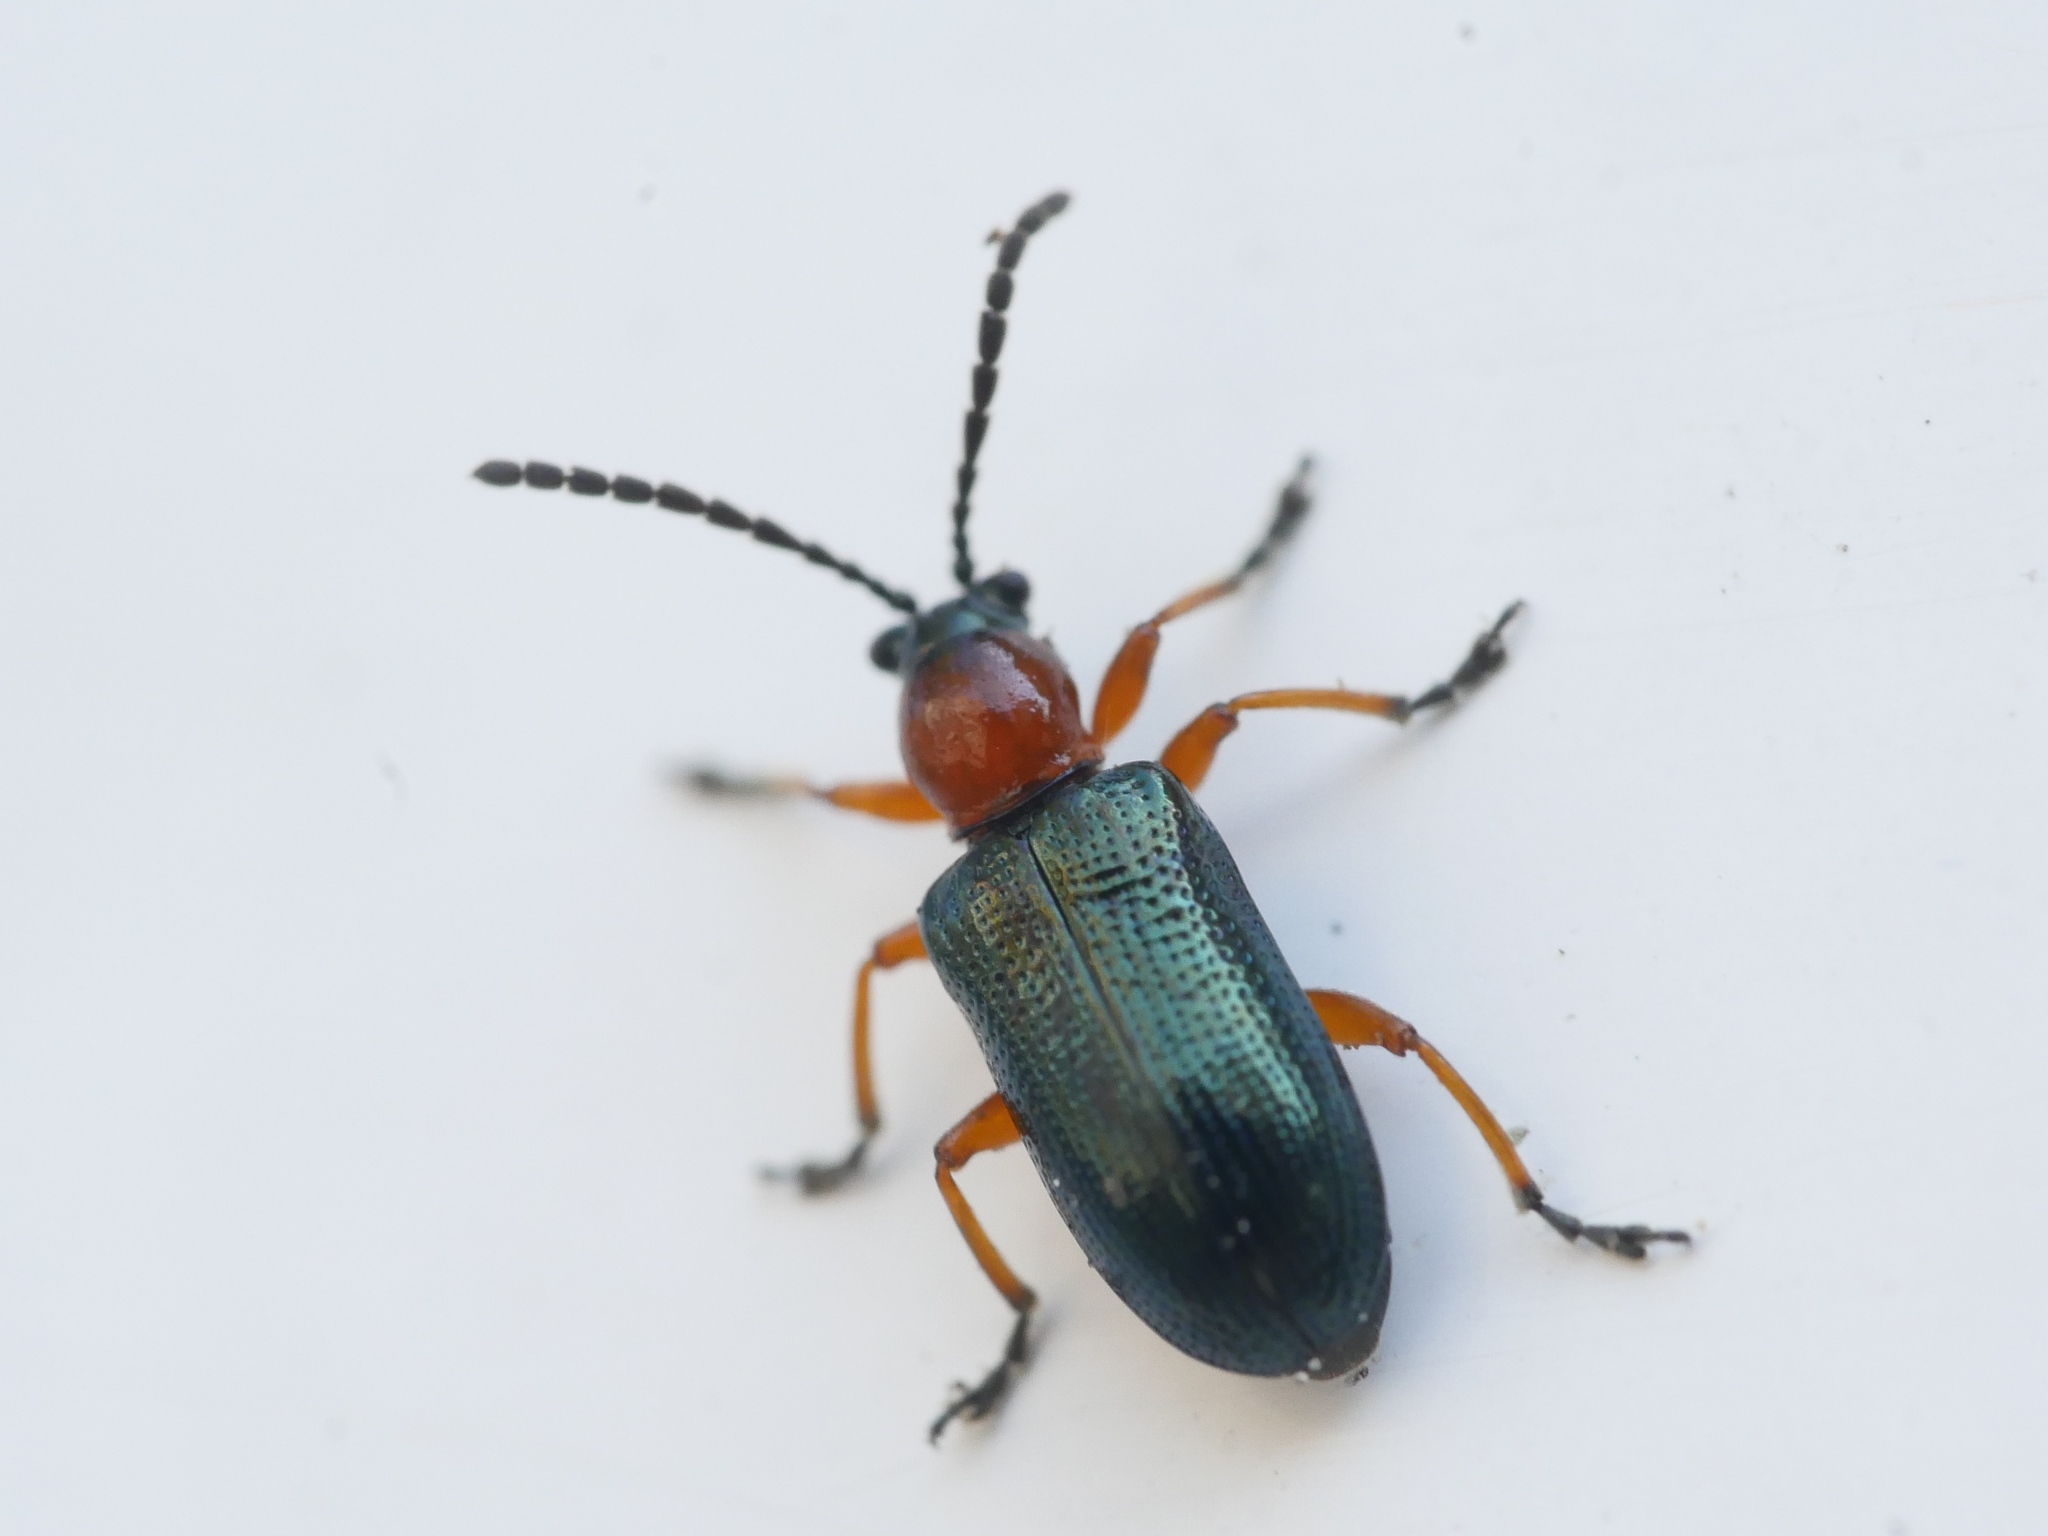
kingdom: Animalia
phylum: Arthropoda
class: Insecta
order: Coleoptera
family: Chrysomelidae
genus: Oulema
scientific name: Oulema
